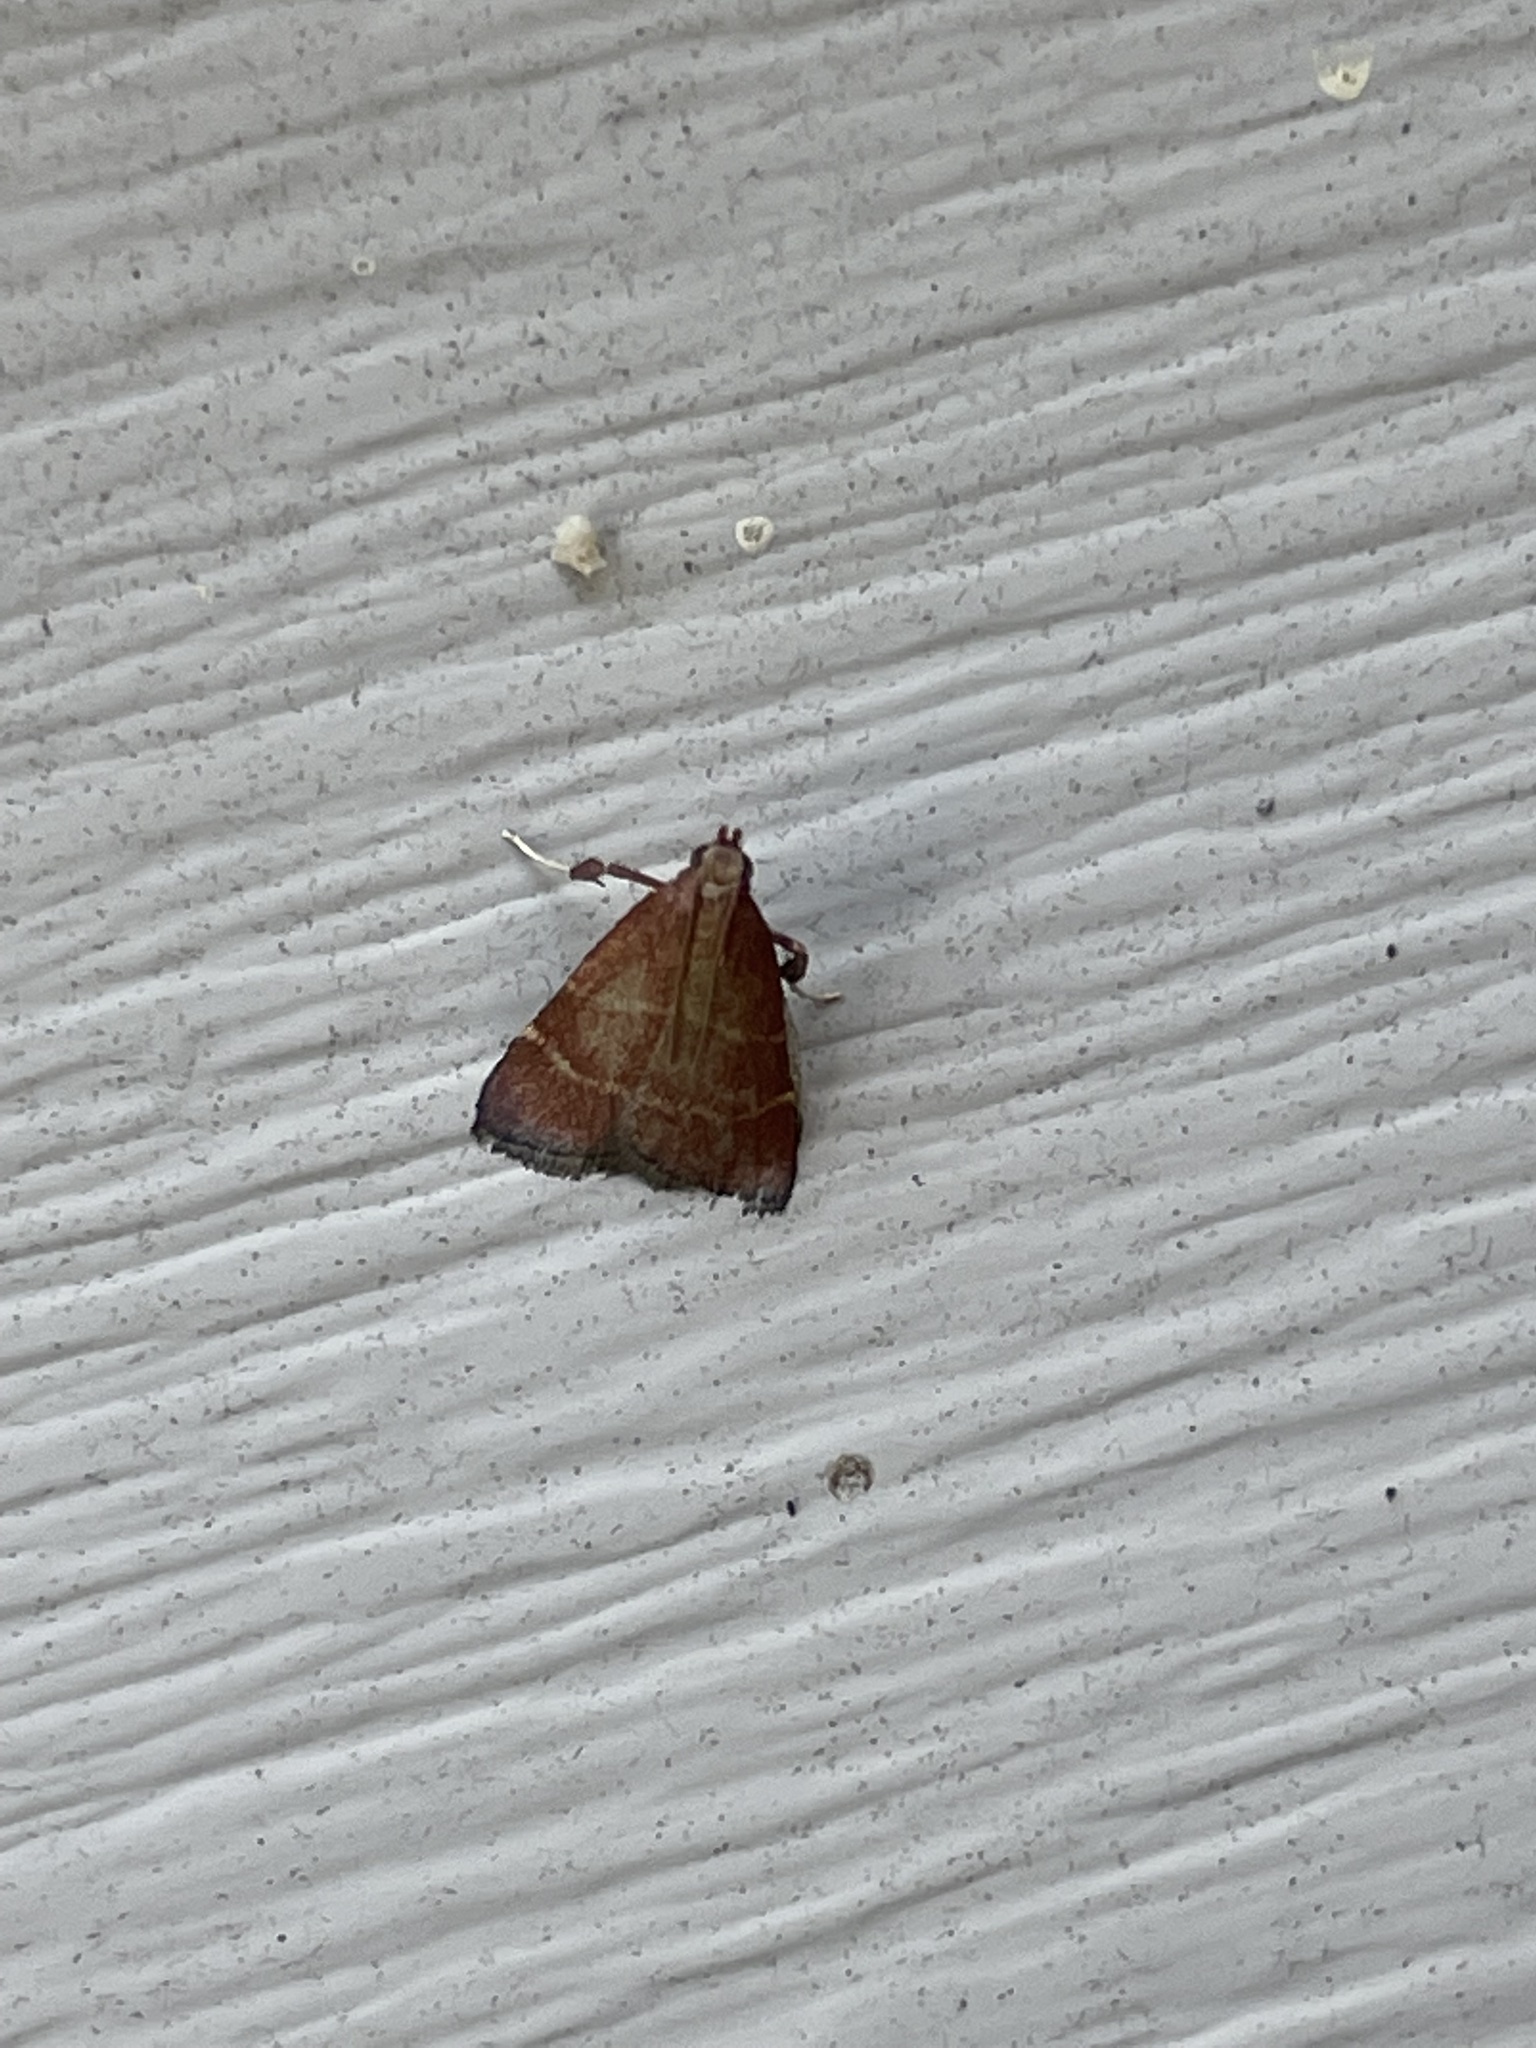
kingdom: Animalia
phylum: Arthropoda
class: Insecta
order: Lepidoptera
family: Pyralidae
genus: Arta
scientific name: Arta statalis
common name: Posturing arta moth
